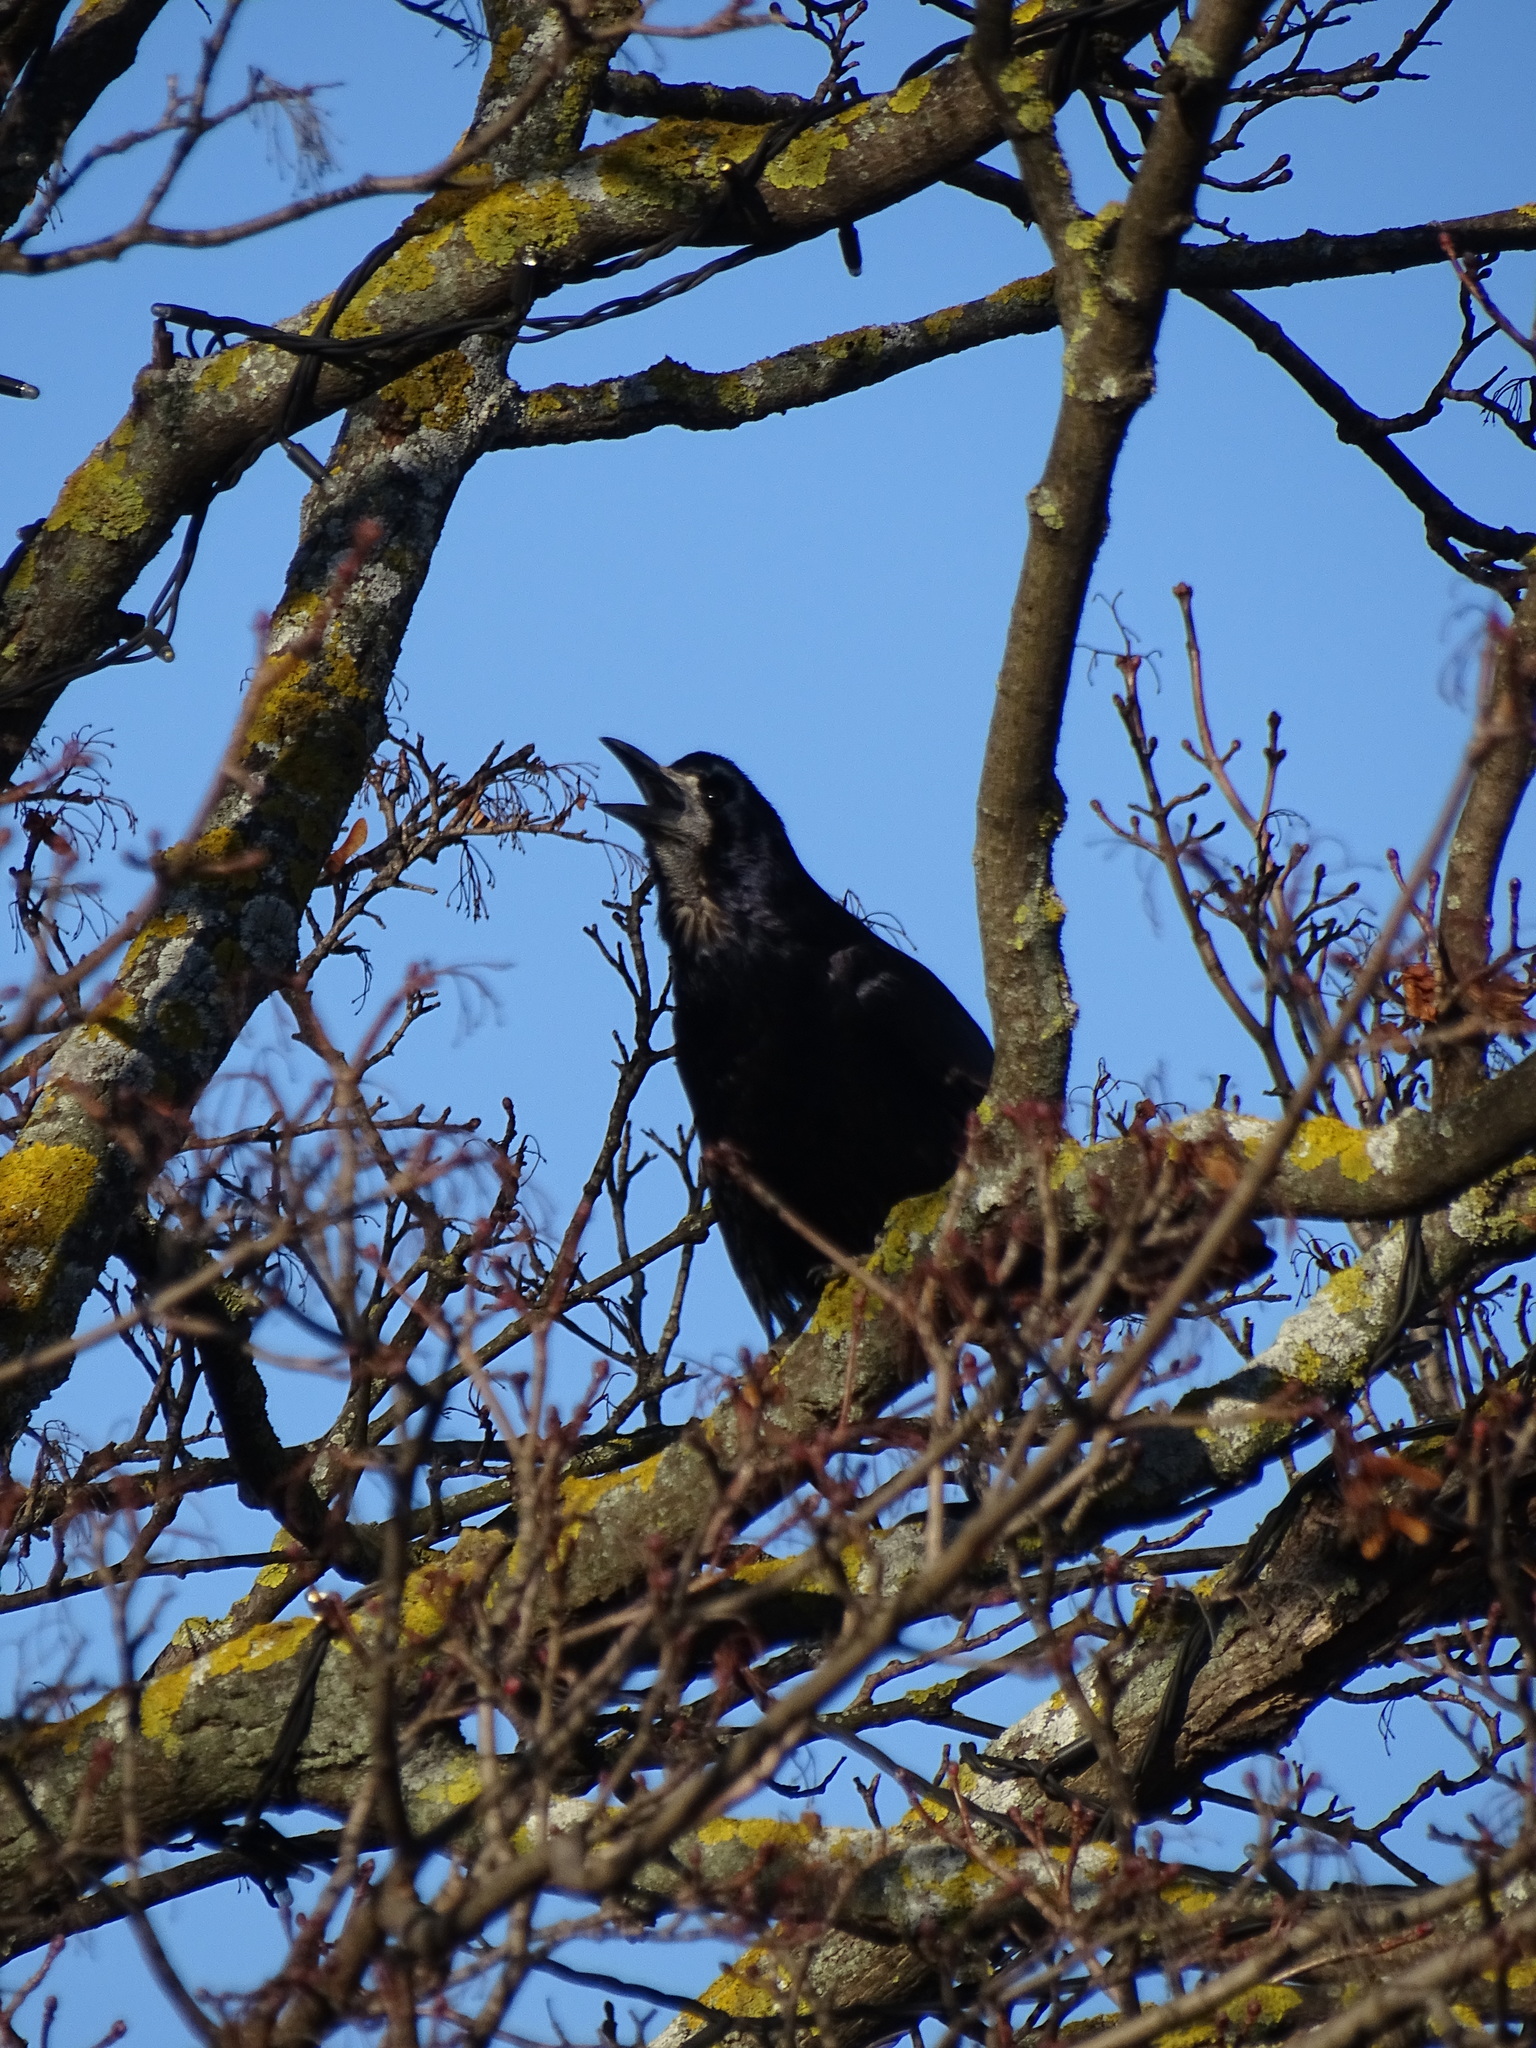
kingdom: Animalia
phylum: Chordata
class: Aves
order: Passeriformes
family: Corvidae
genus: Corvus
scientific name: Corvus frugilegus
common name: Rook
